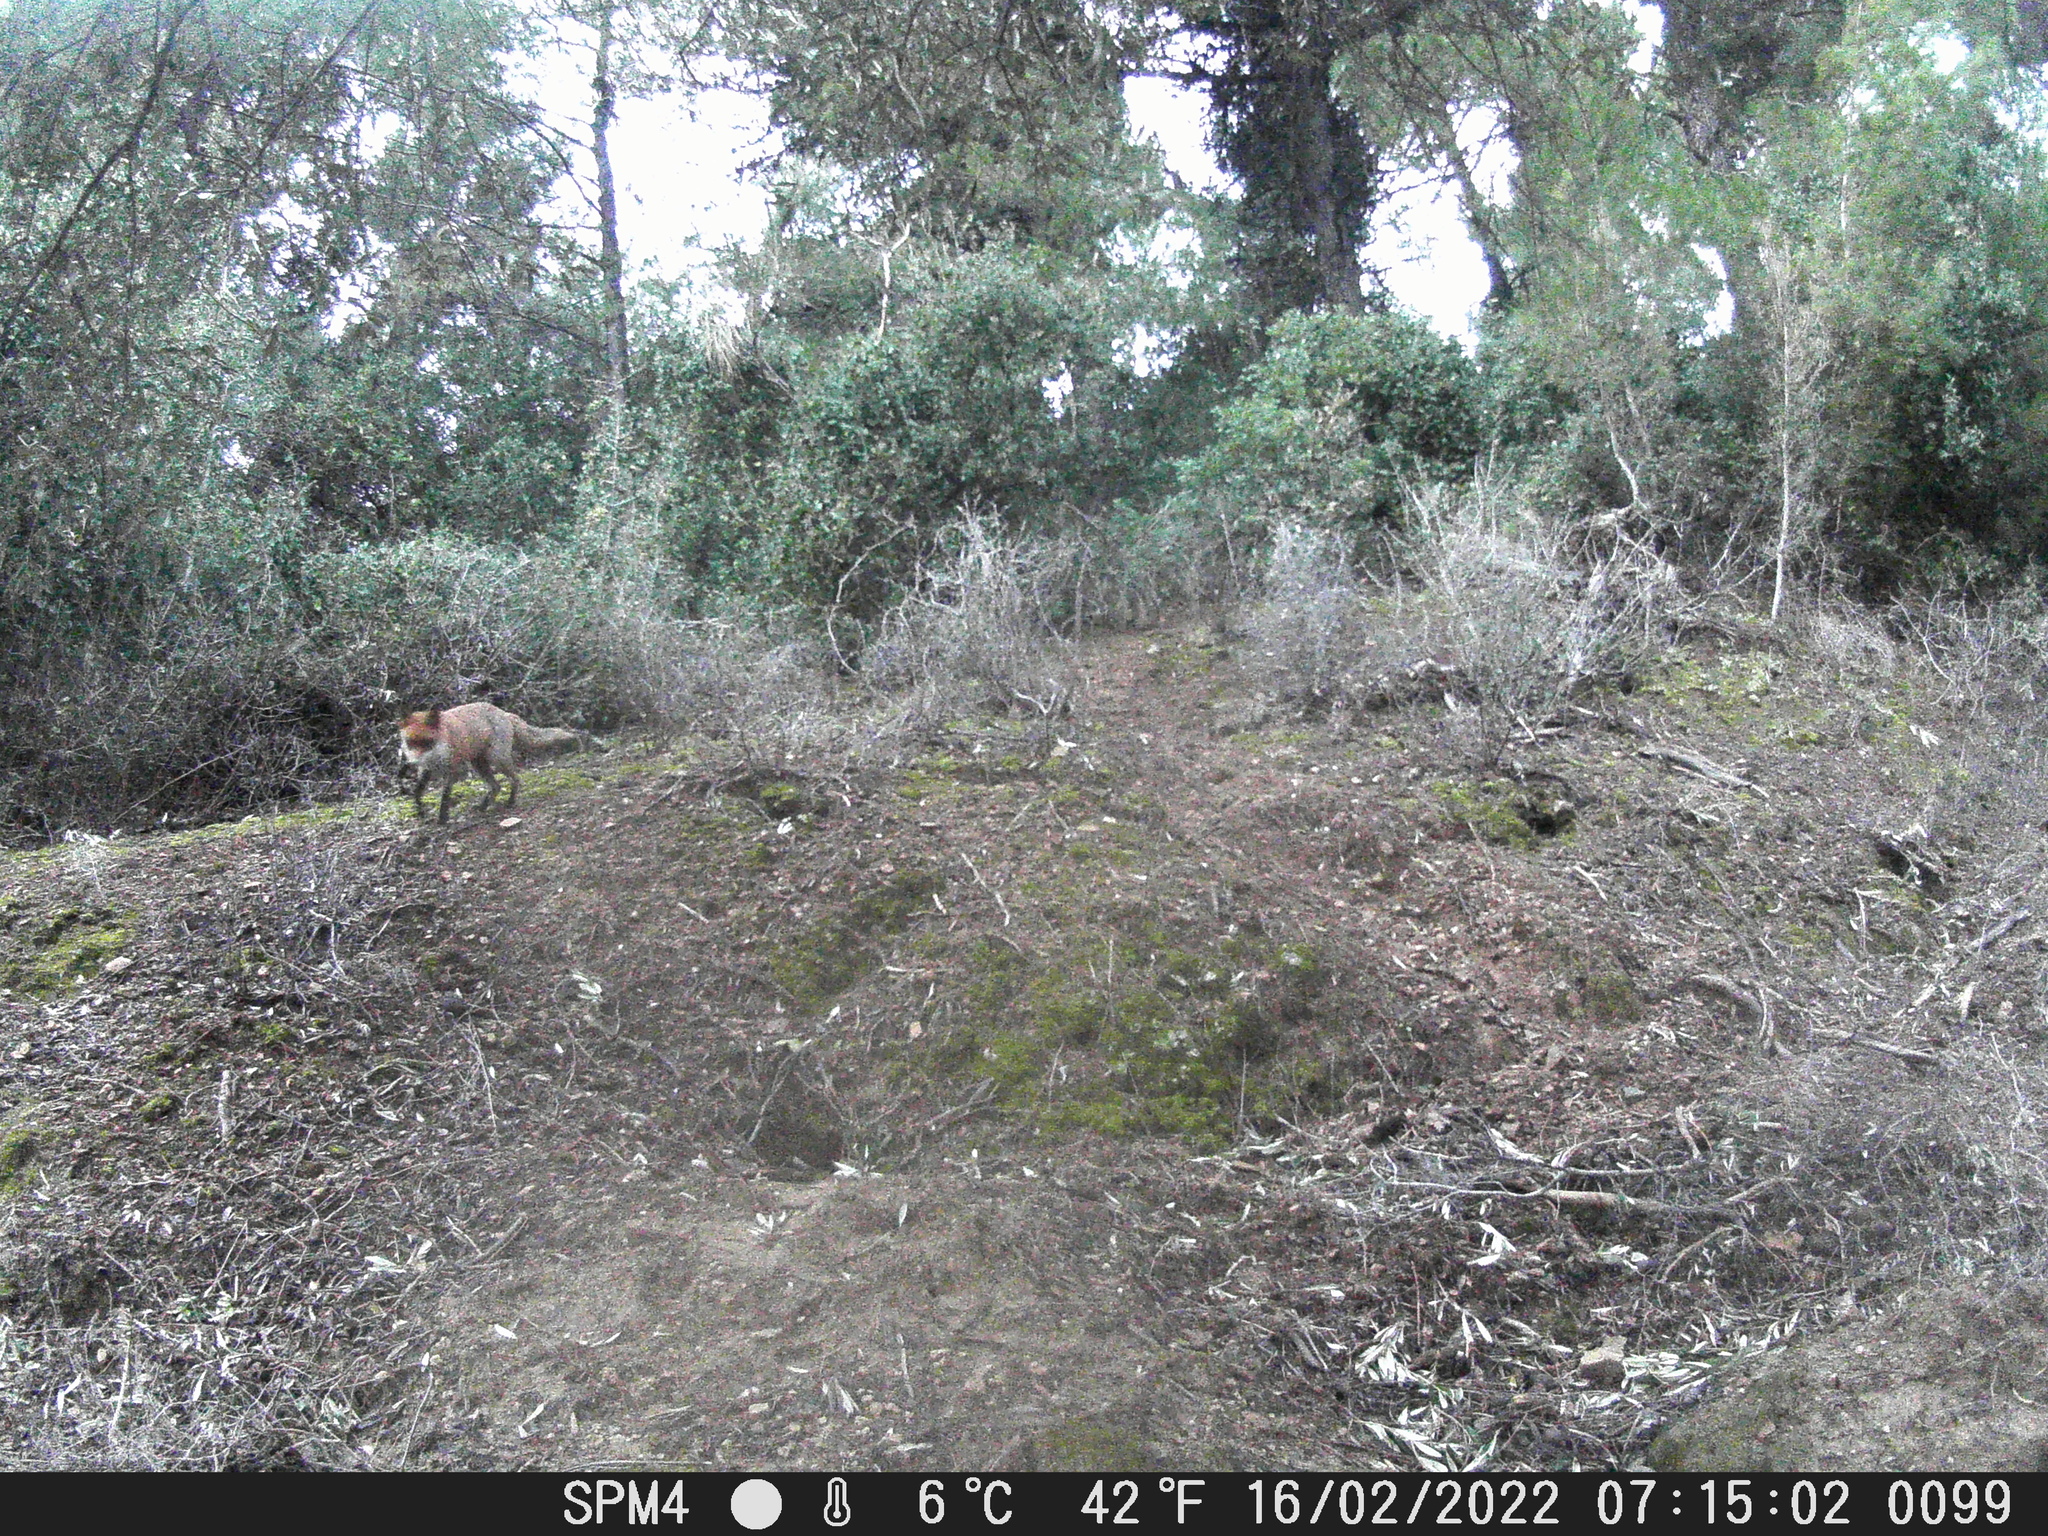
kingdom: Animalia
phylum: Chordata
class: Mammalia
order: Carnivora
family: Canidae
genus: Vulpes
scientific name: Vulpes vulpes
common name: Red fox
